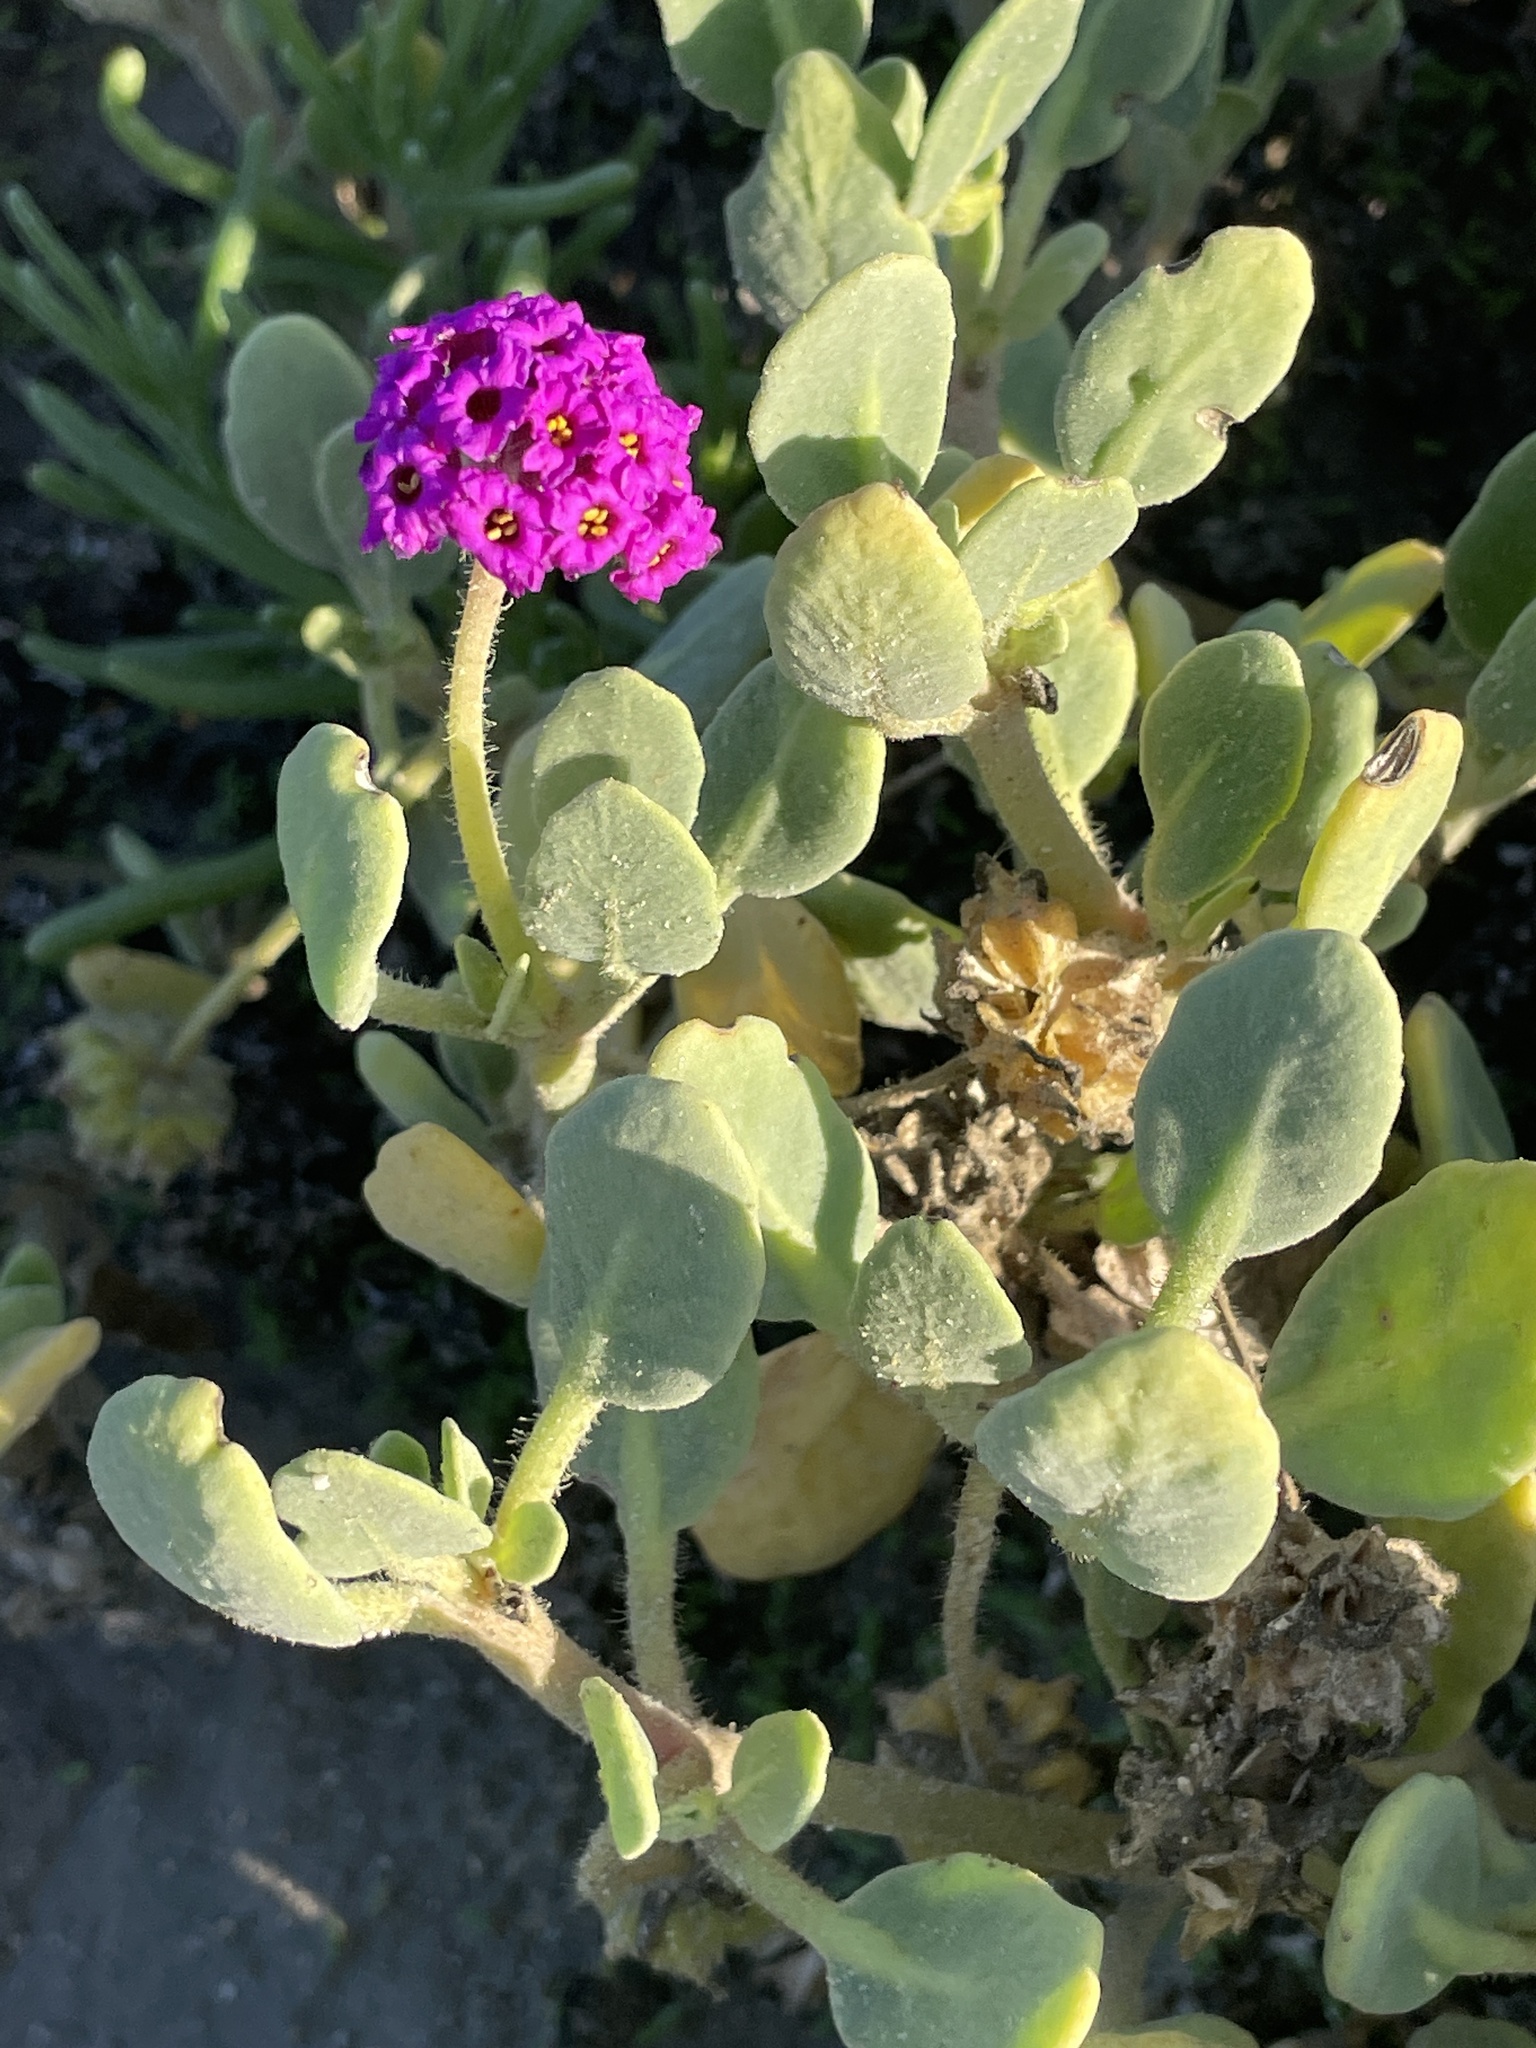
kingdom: Plantae
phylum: Tracheophyta
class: Magnoliopsida
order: Caryophyllales
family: Nyctaginaceae
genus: Abronia
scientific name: Abronia maritima
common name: Red sand-verbena
